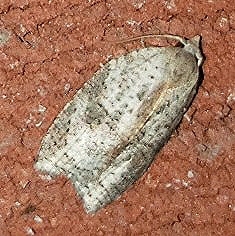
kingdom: Animalia
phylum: Arthropoda
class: Insecta
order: Lepidoptera
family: Tortricidae
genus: Amorbia
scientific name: Amorbia humerosana
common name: White-lined leafroller moth
